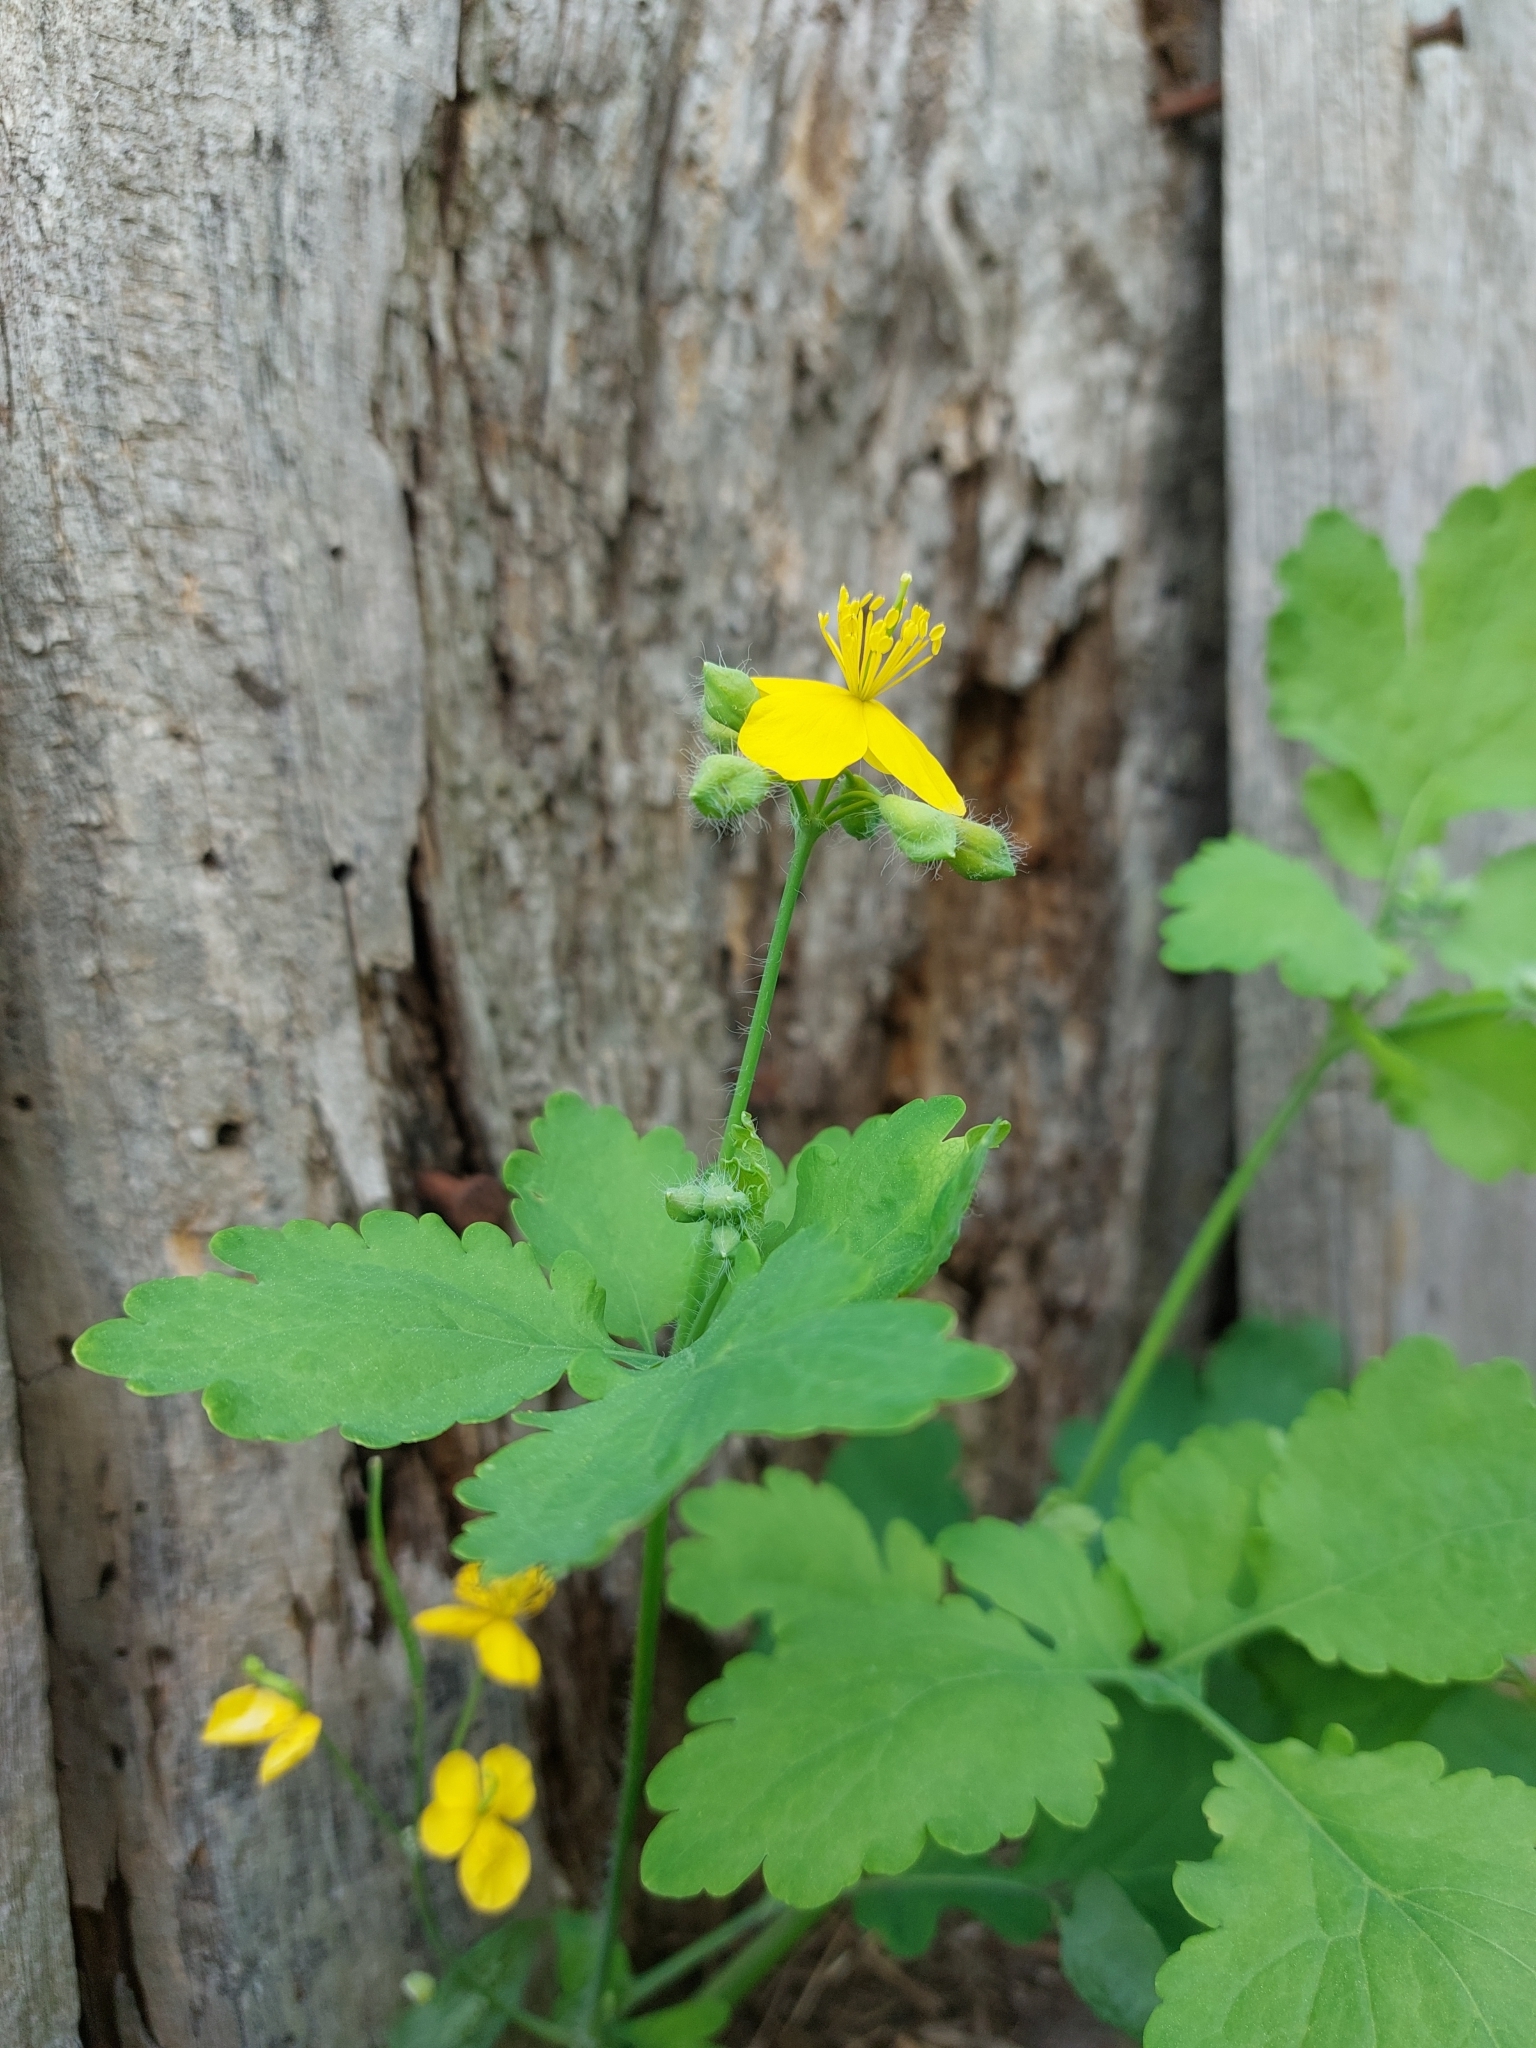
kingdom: Plantae
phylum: Tracheophyta
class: Magnoliopsida
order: Ranunculales
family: Papaveraceae
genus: Chelidonium
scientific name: Chelidonium majus
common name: Greater celandine
